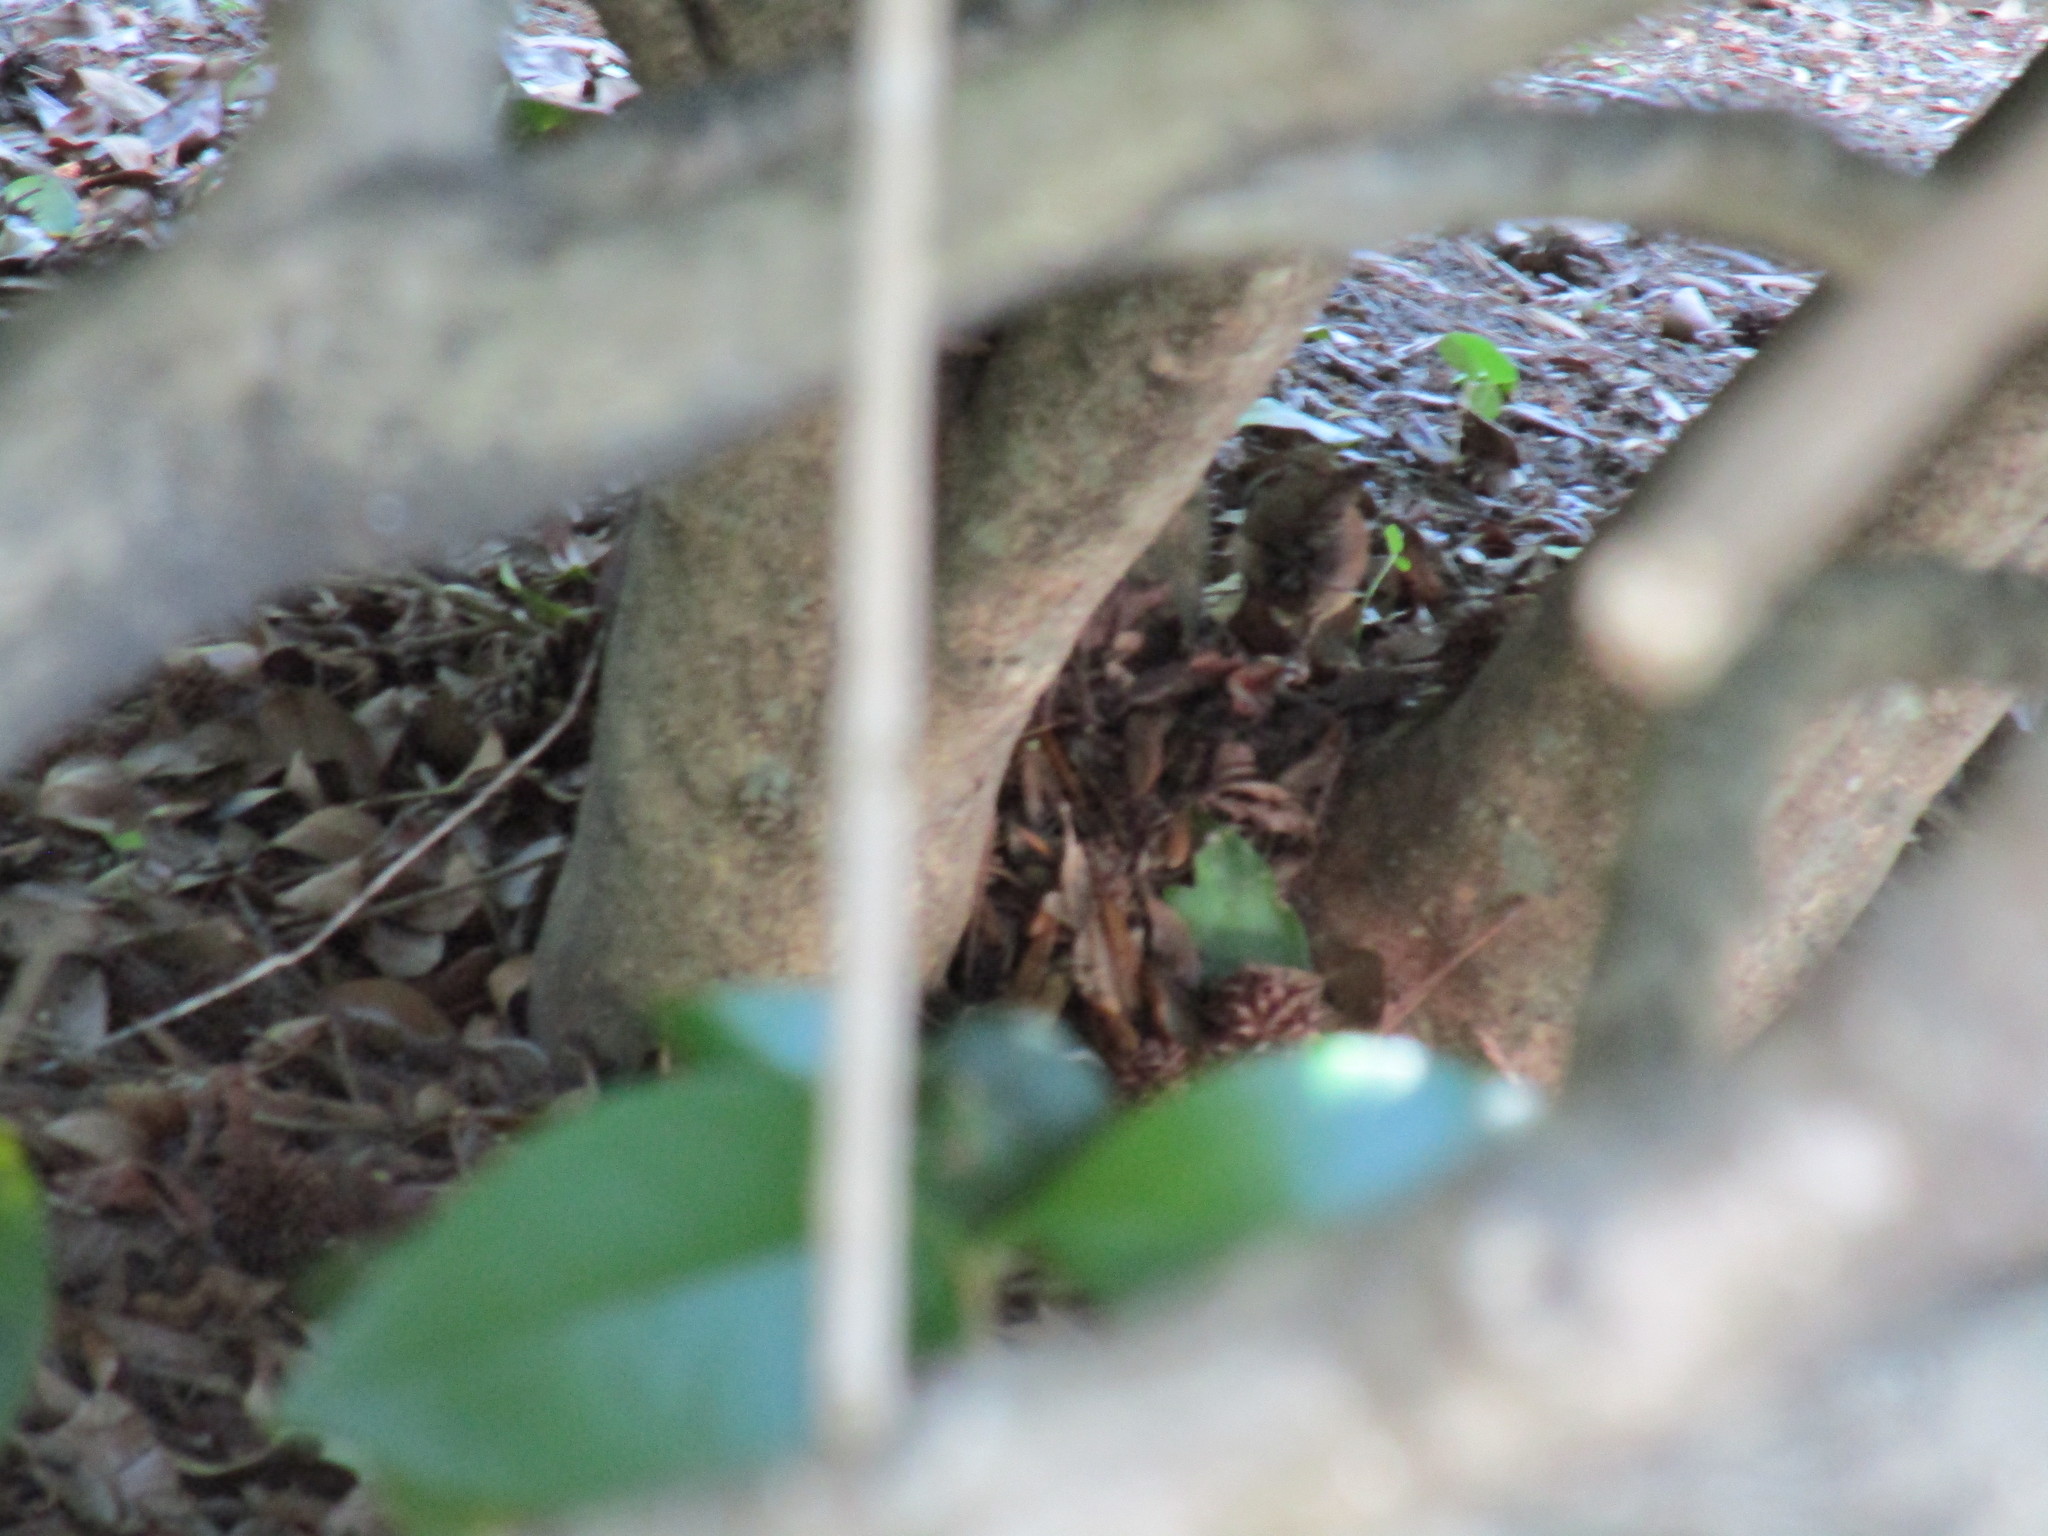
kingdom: Animalia
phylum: Chordata
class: Aves
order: Passeriformes
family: Troglodytidae
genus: Thryothorus
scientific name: Thryothorus ludovicianus
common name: Carolina wren
